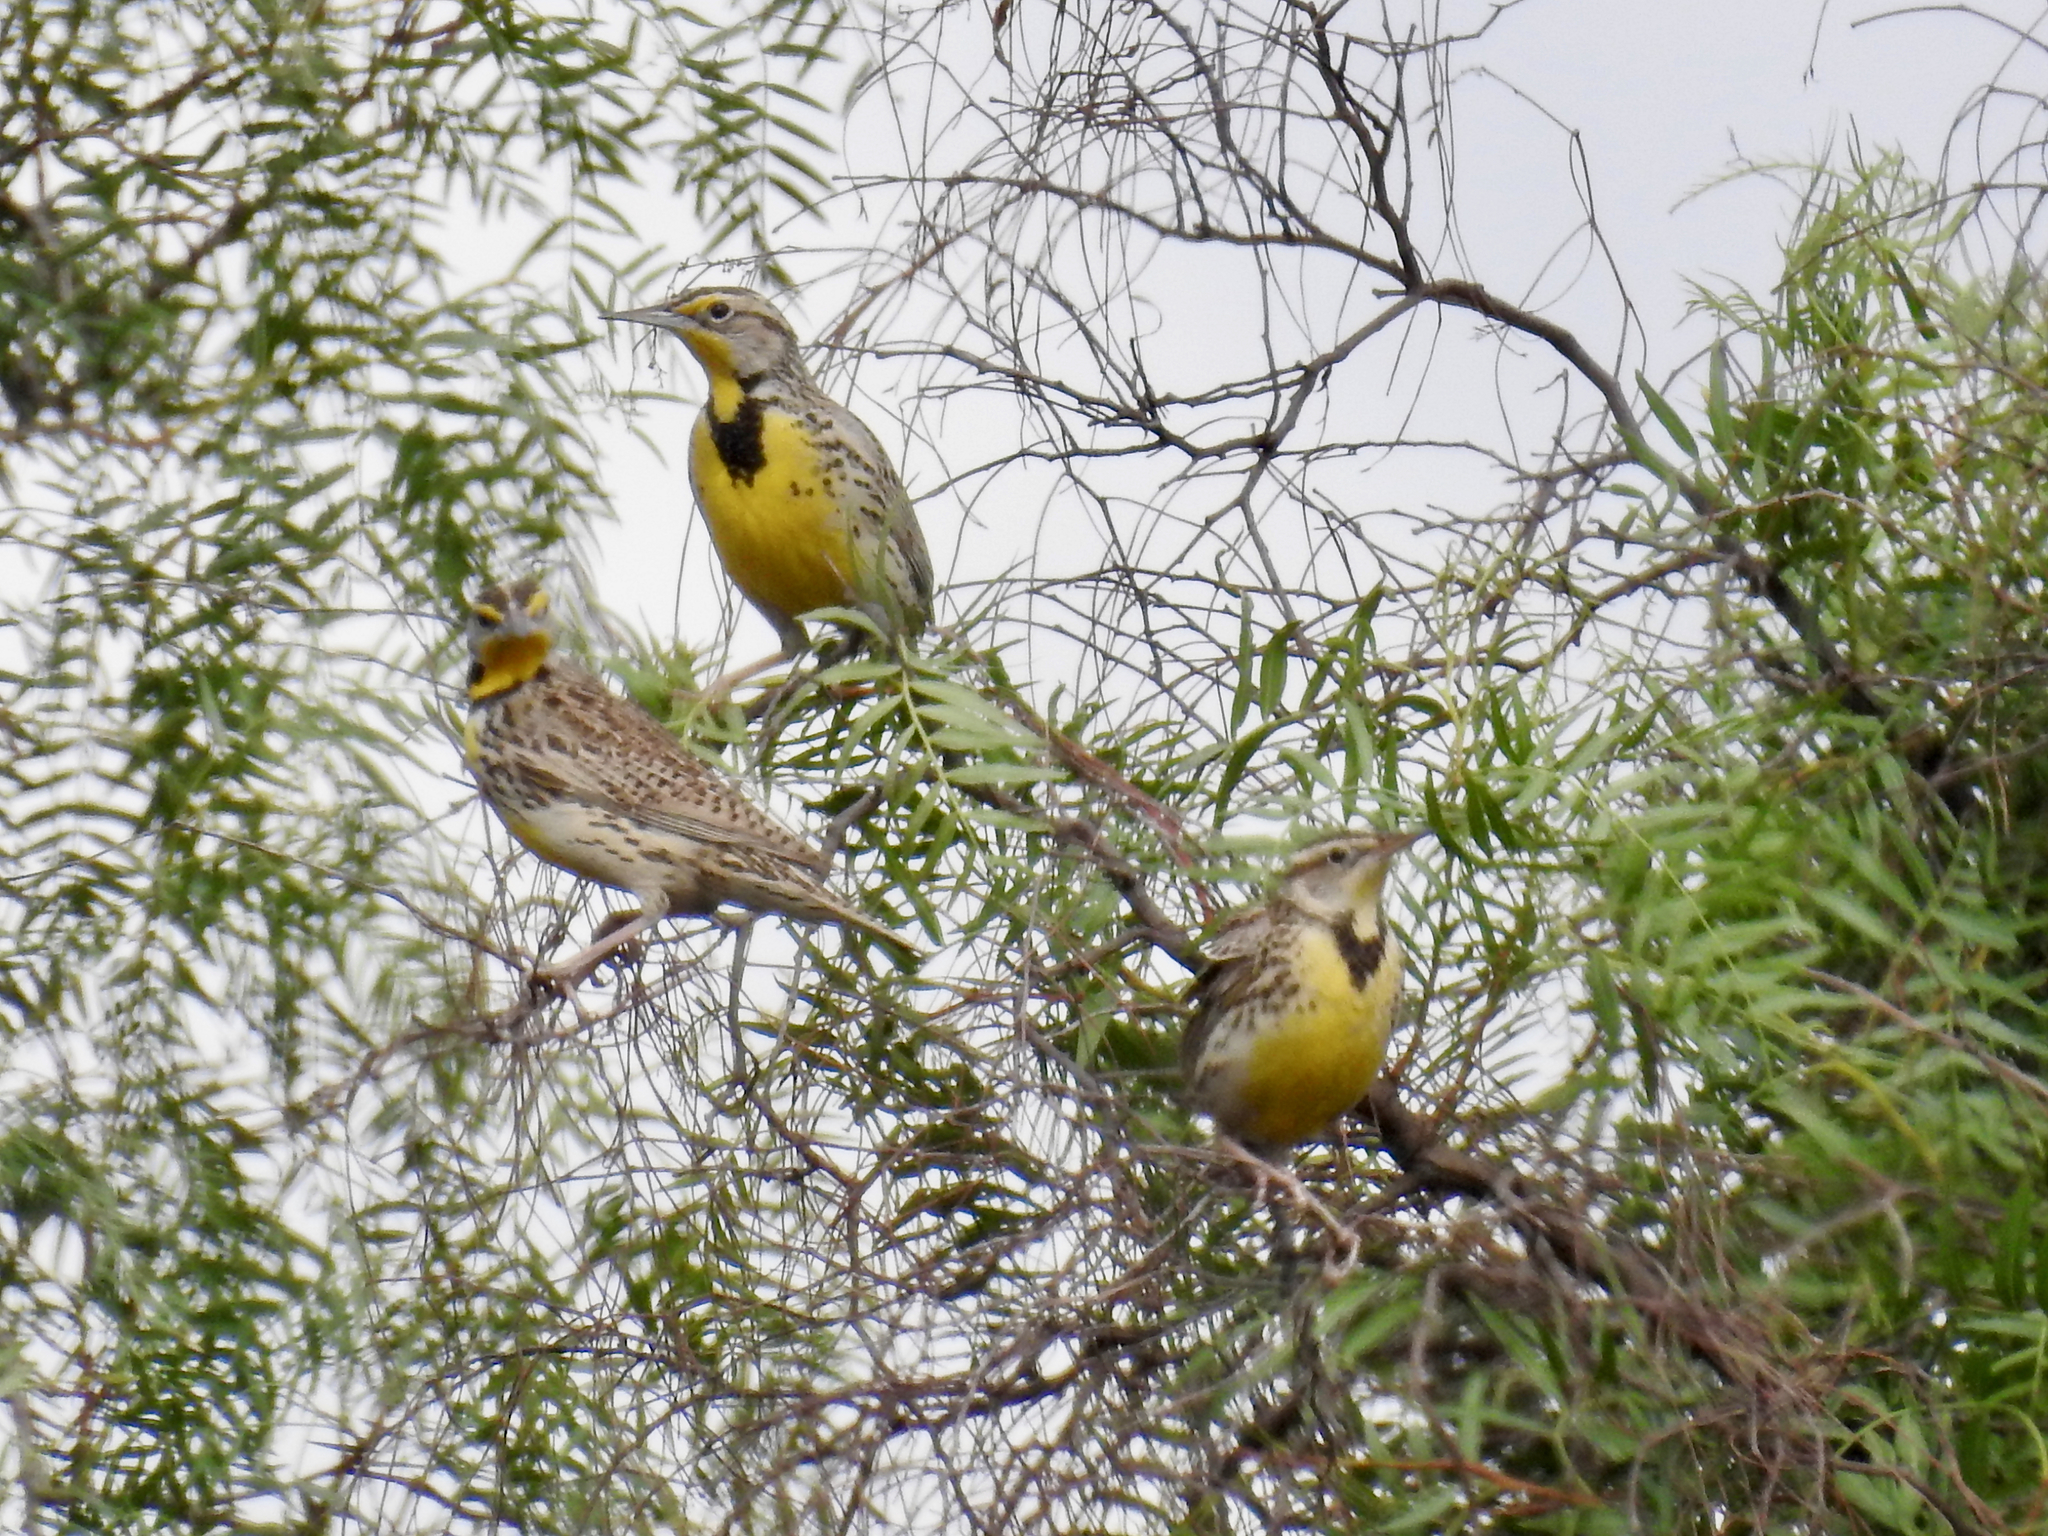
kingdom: Animalia
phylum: Chordata
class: Aves
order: Passeriformes
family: Icteridae
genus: Sturnella
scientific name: Sturnella neglecta
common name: Western meadowlark
